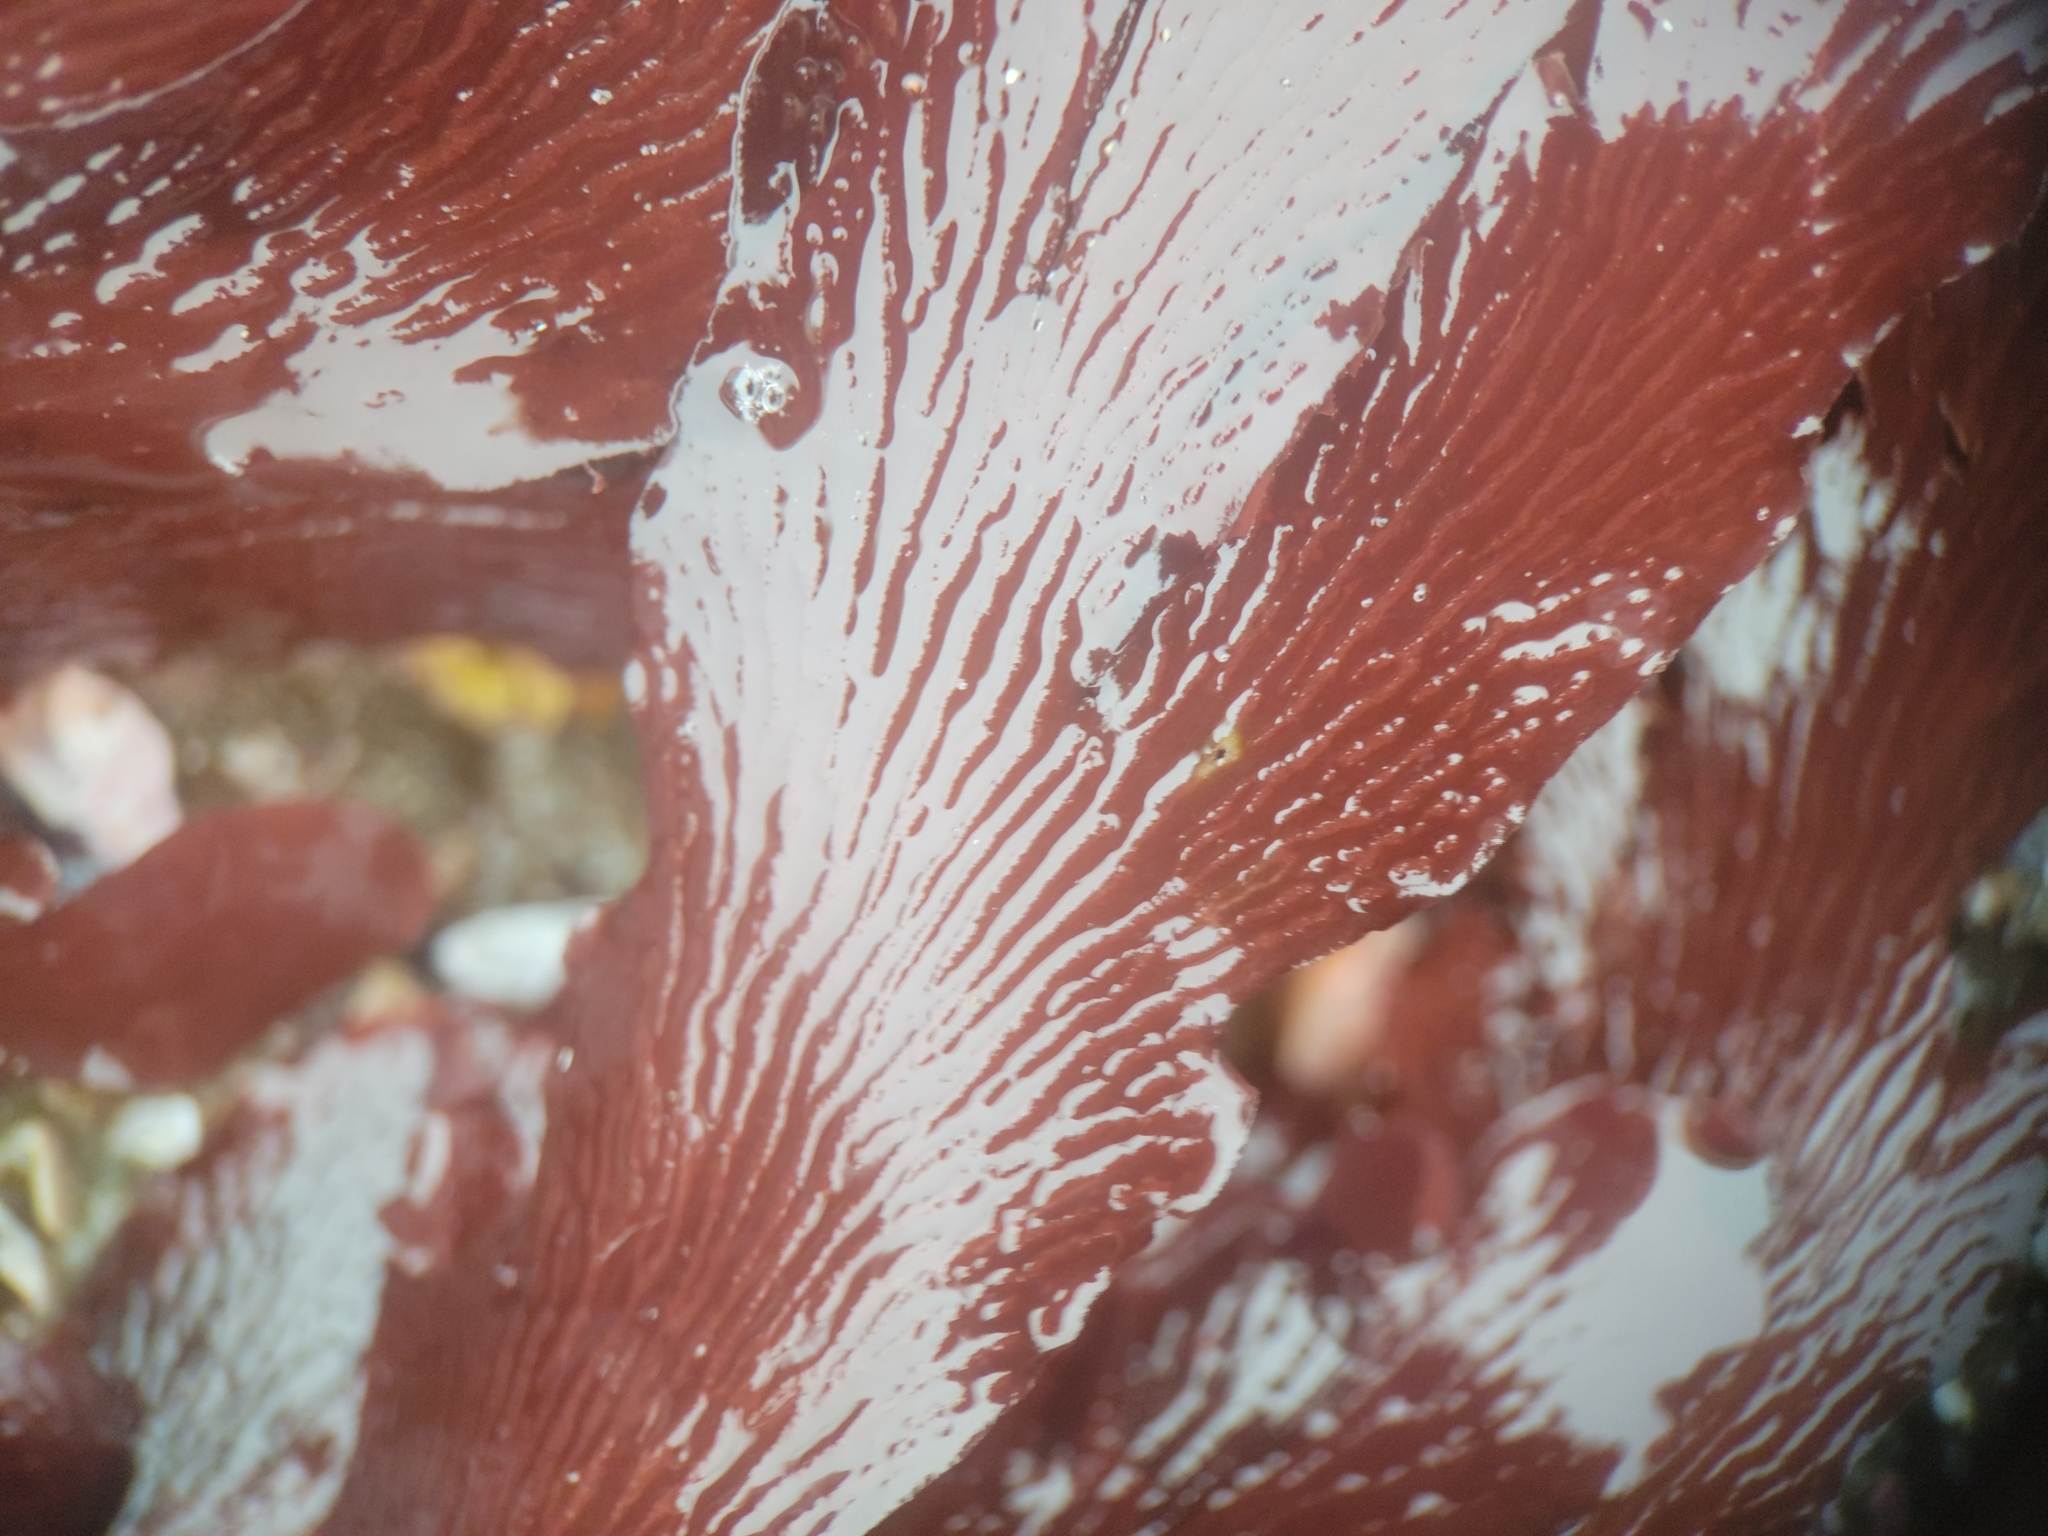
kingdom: Plantae
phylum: Rhodophyta
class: Florideophyceae
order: Ceramiales
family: Delesseriaceae
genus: Hymenena
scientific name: Hymenena flabelligera
